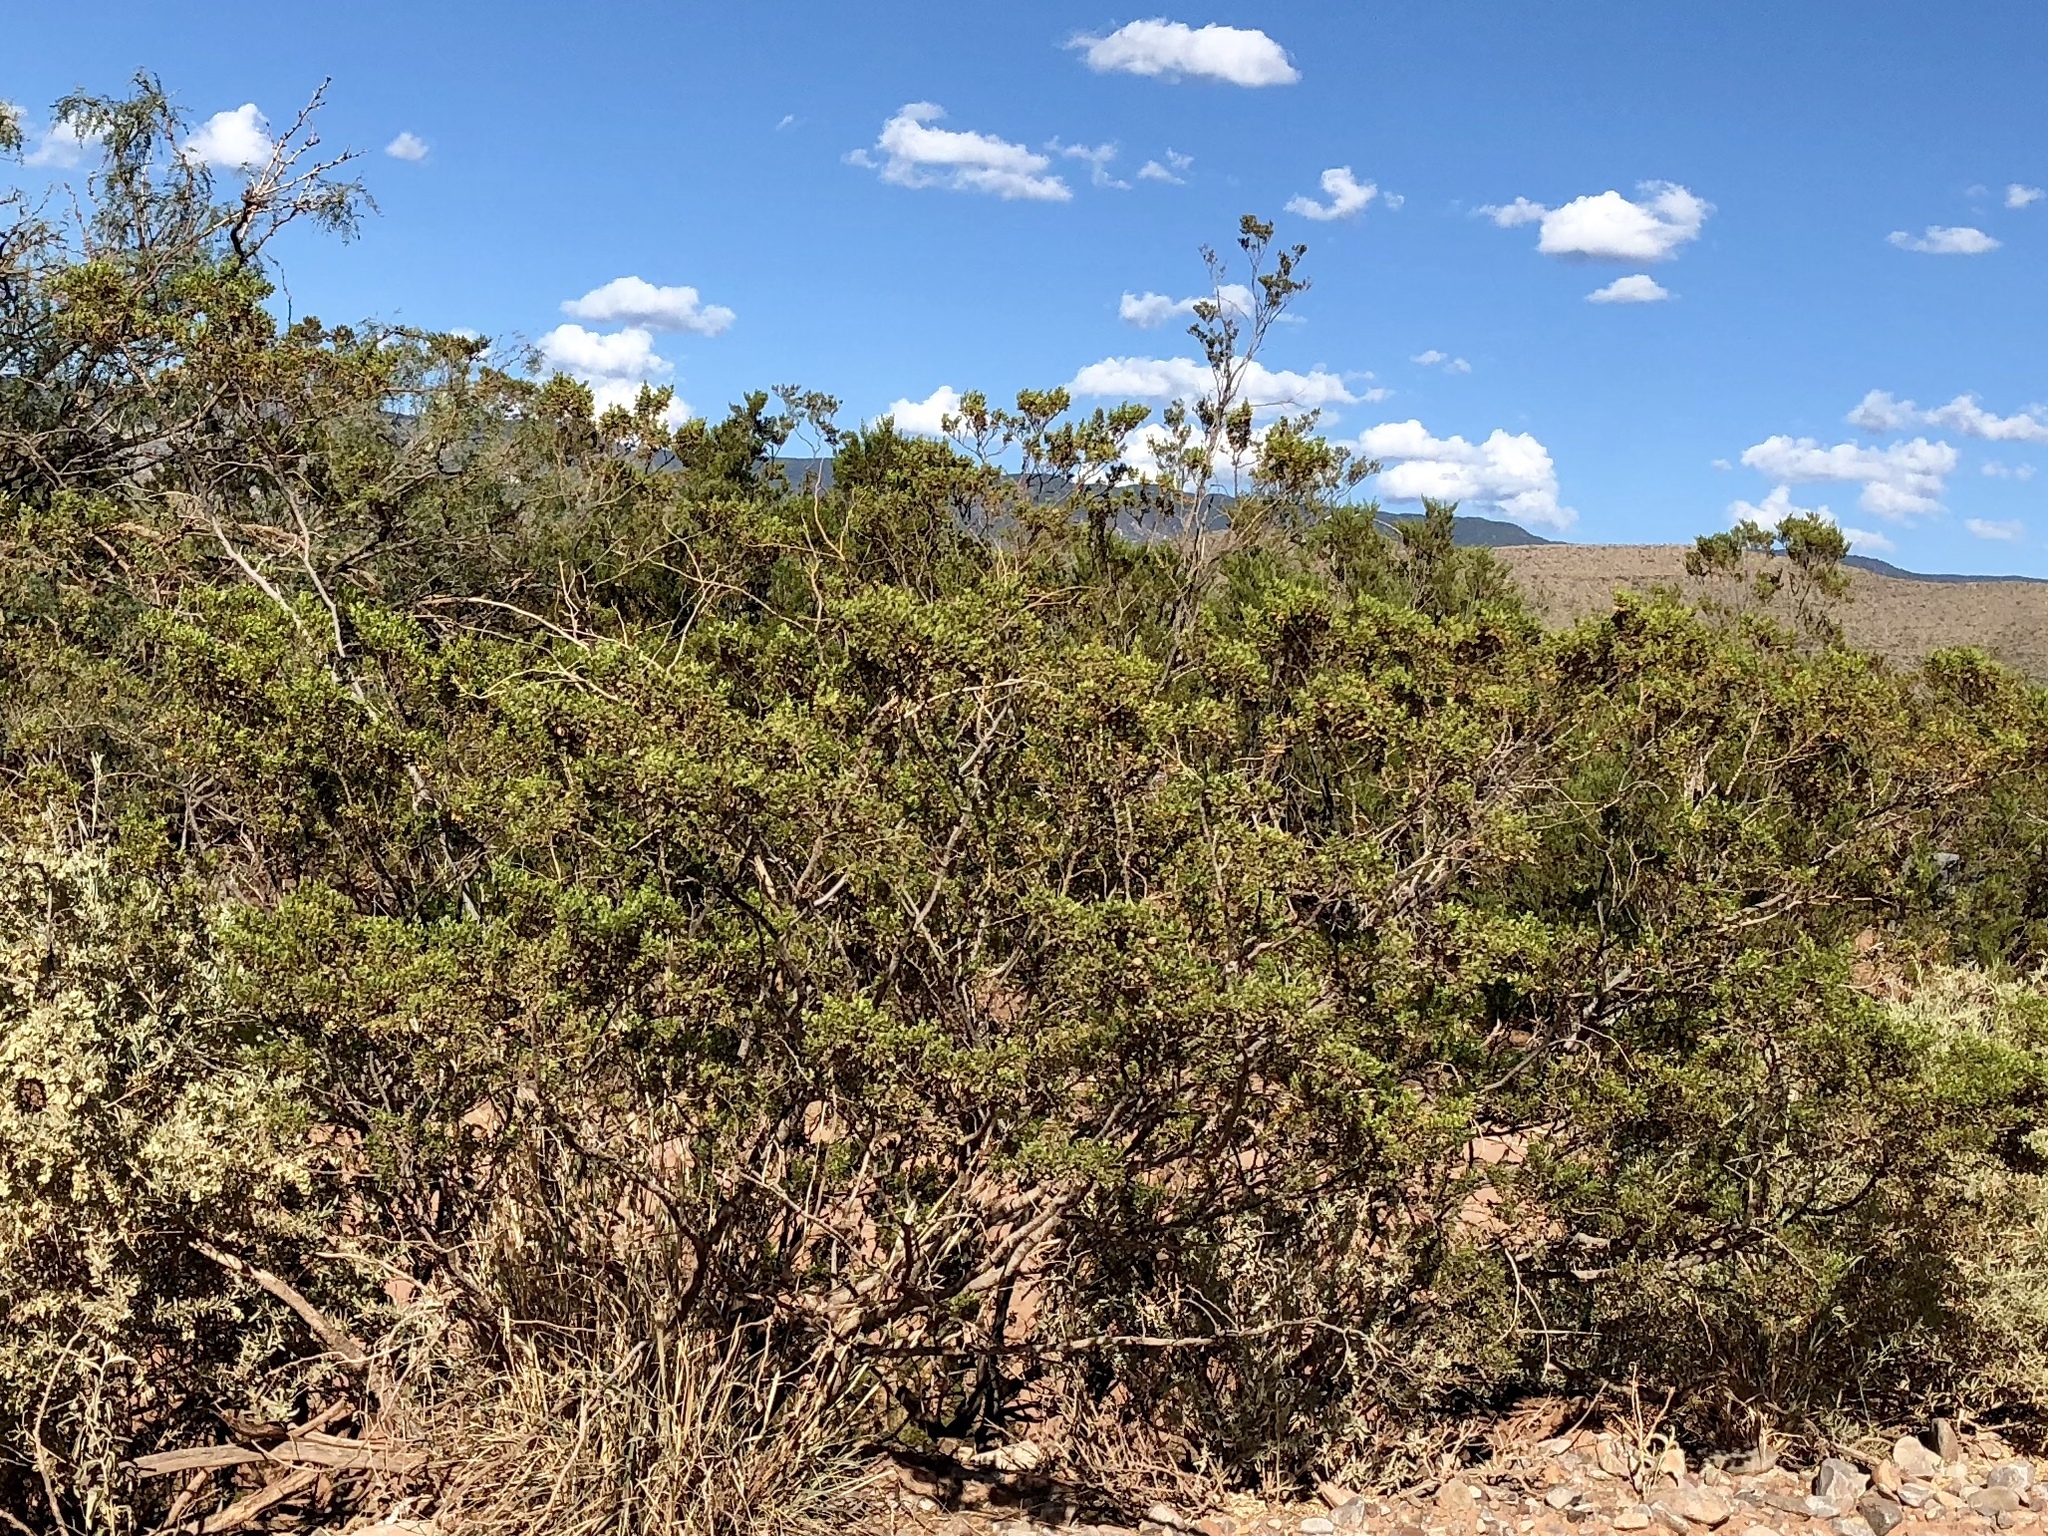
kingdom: Plantae
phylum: Tracheophyta
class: Magnoliopsida
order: Zygophyllales
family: Zygophyllaceae
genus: Larrea
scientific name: Larrea tridentata
